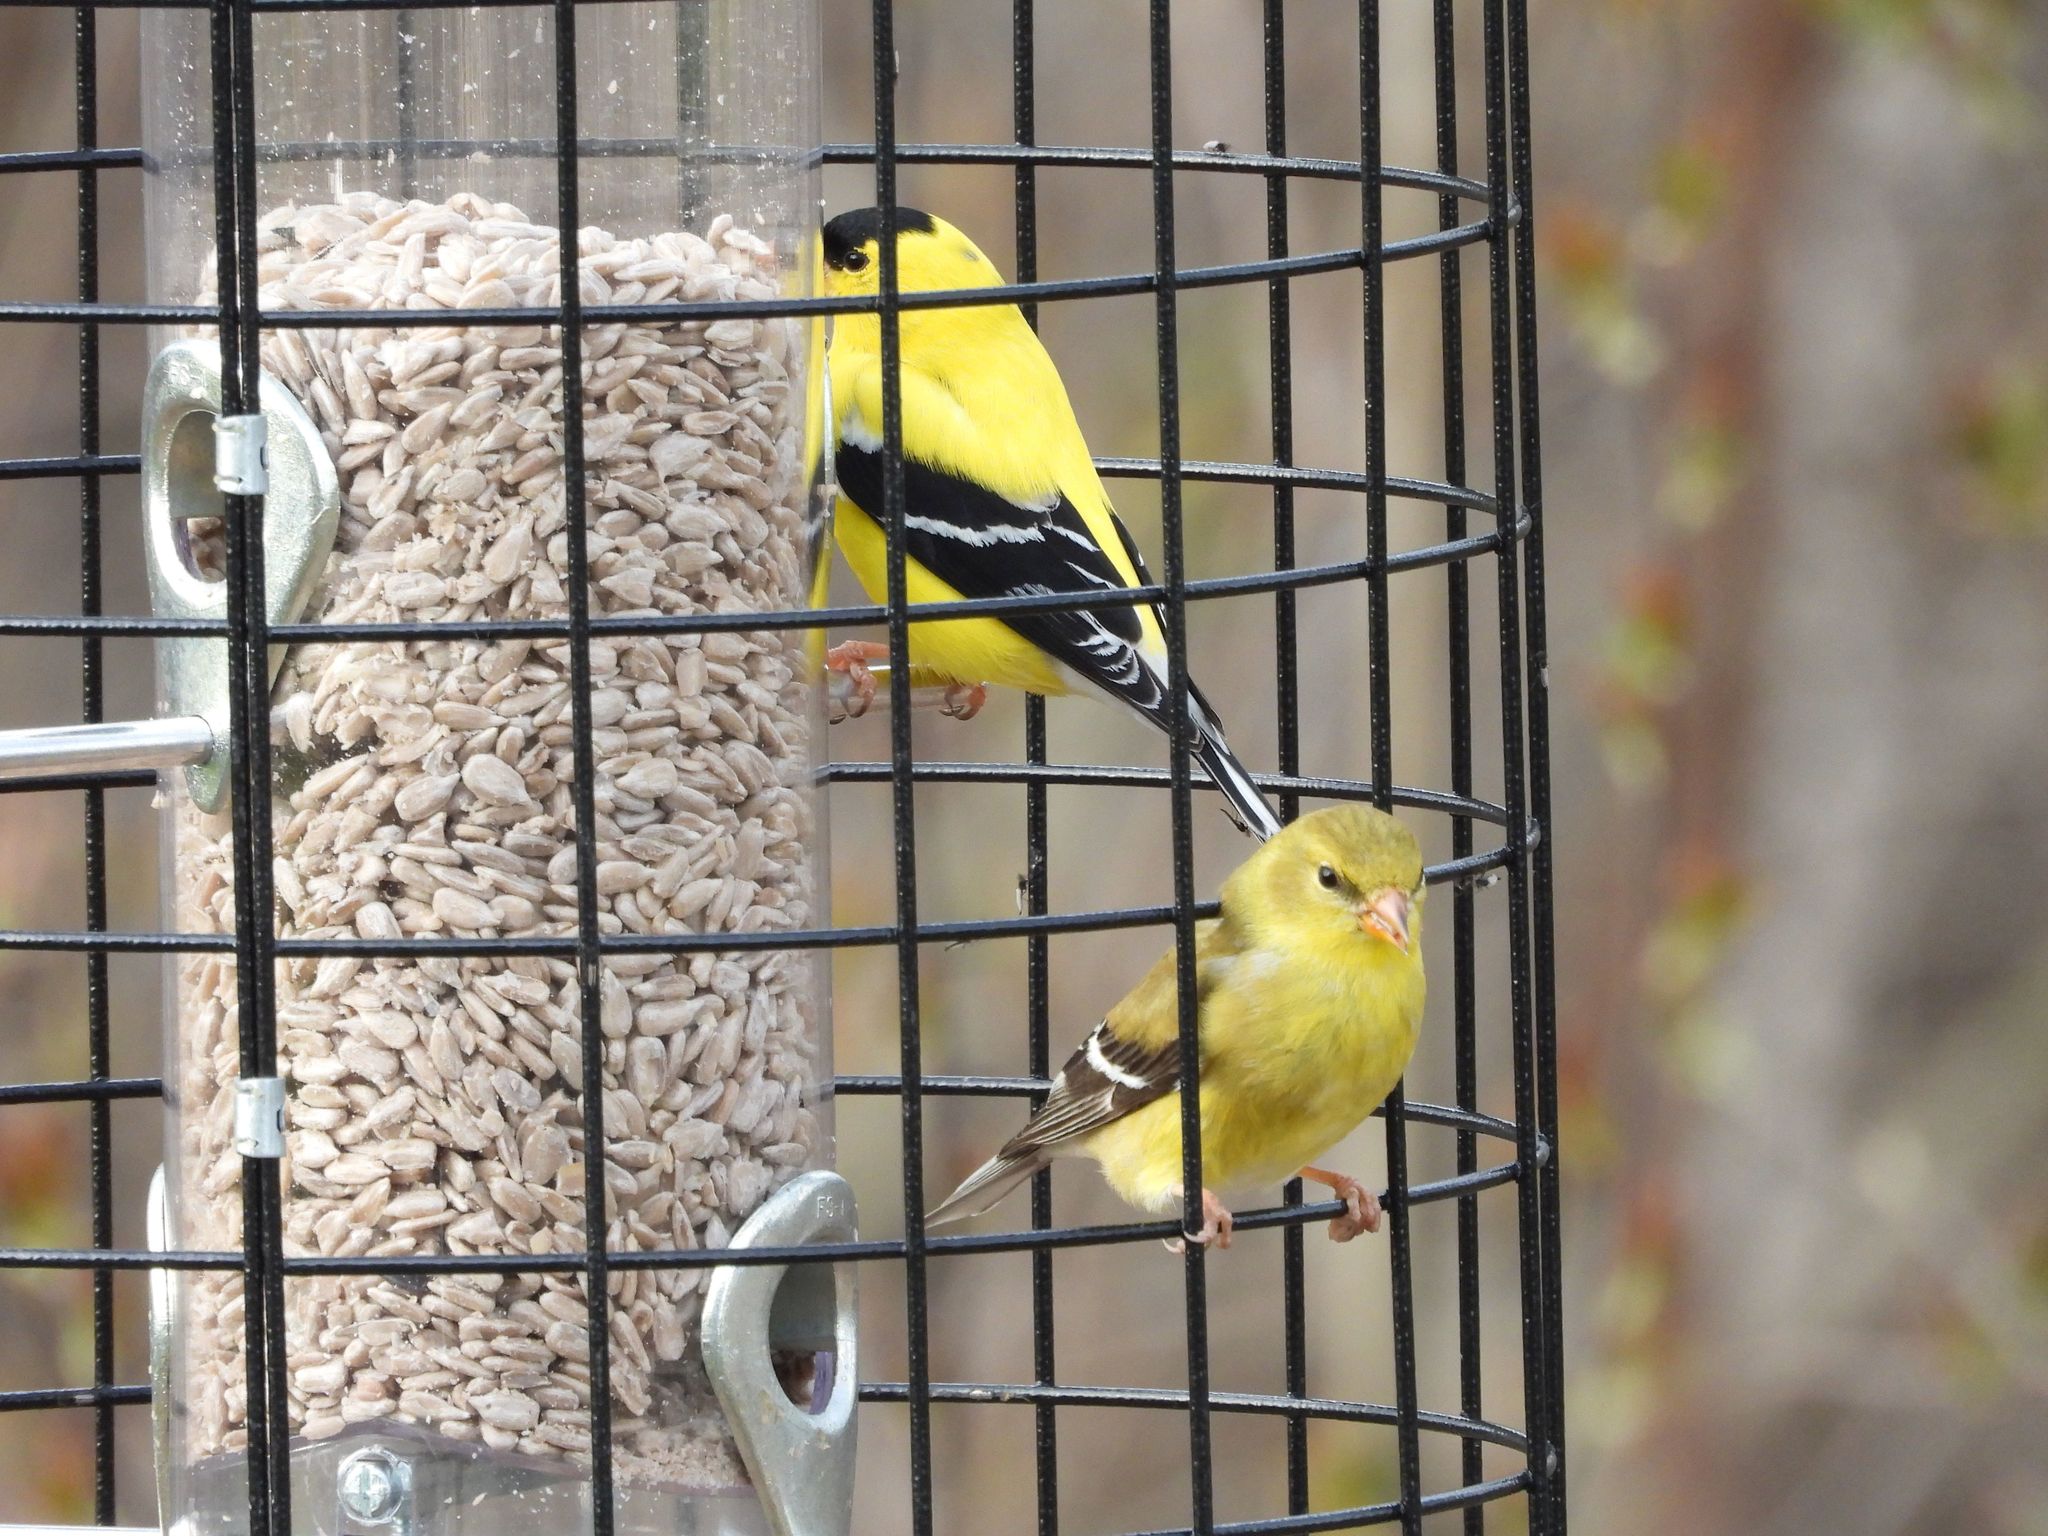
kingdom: Animalia
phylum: Chordata
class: Aves
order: Passeriformes
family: Fringillidae
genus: Spinus
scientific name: Spinus tristis
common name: American goldfinch
